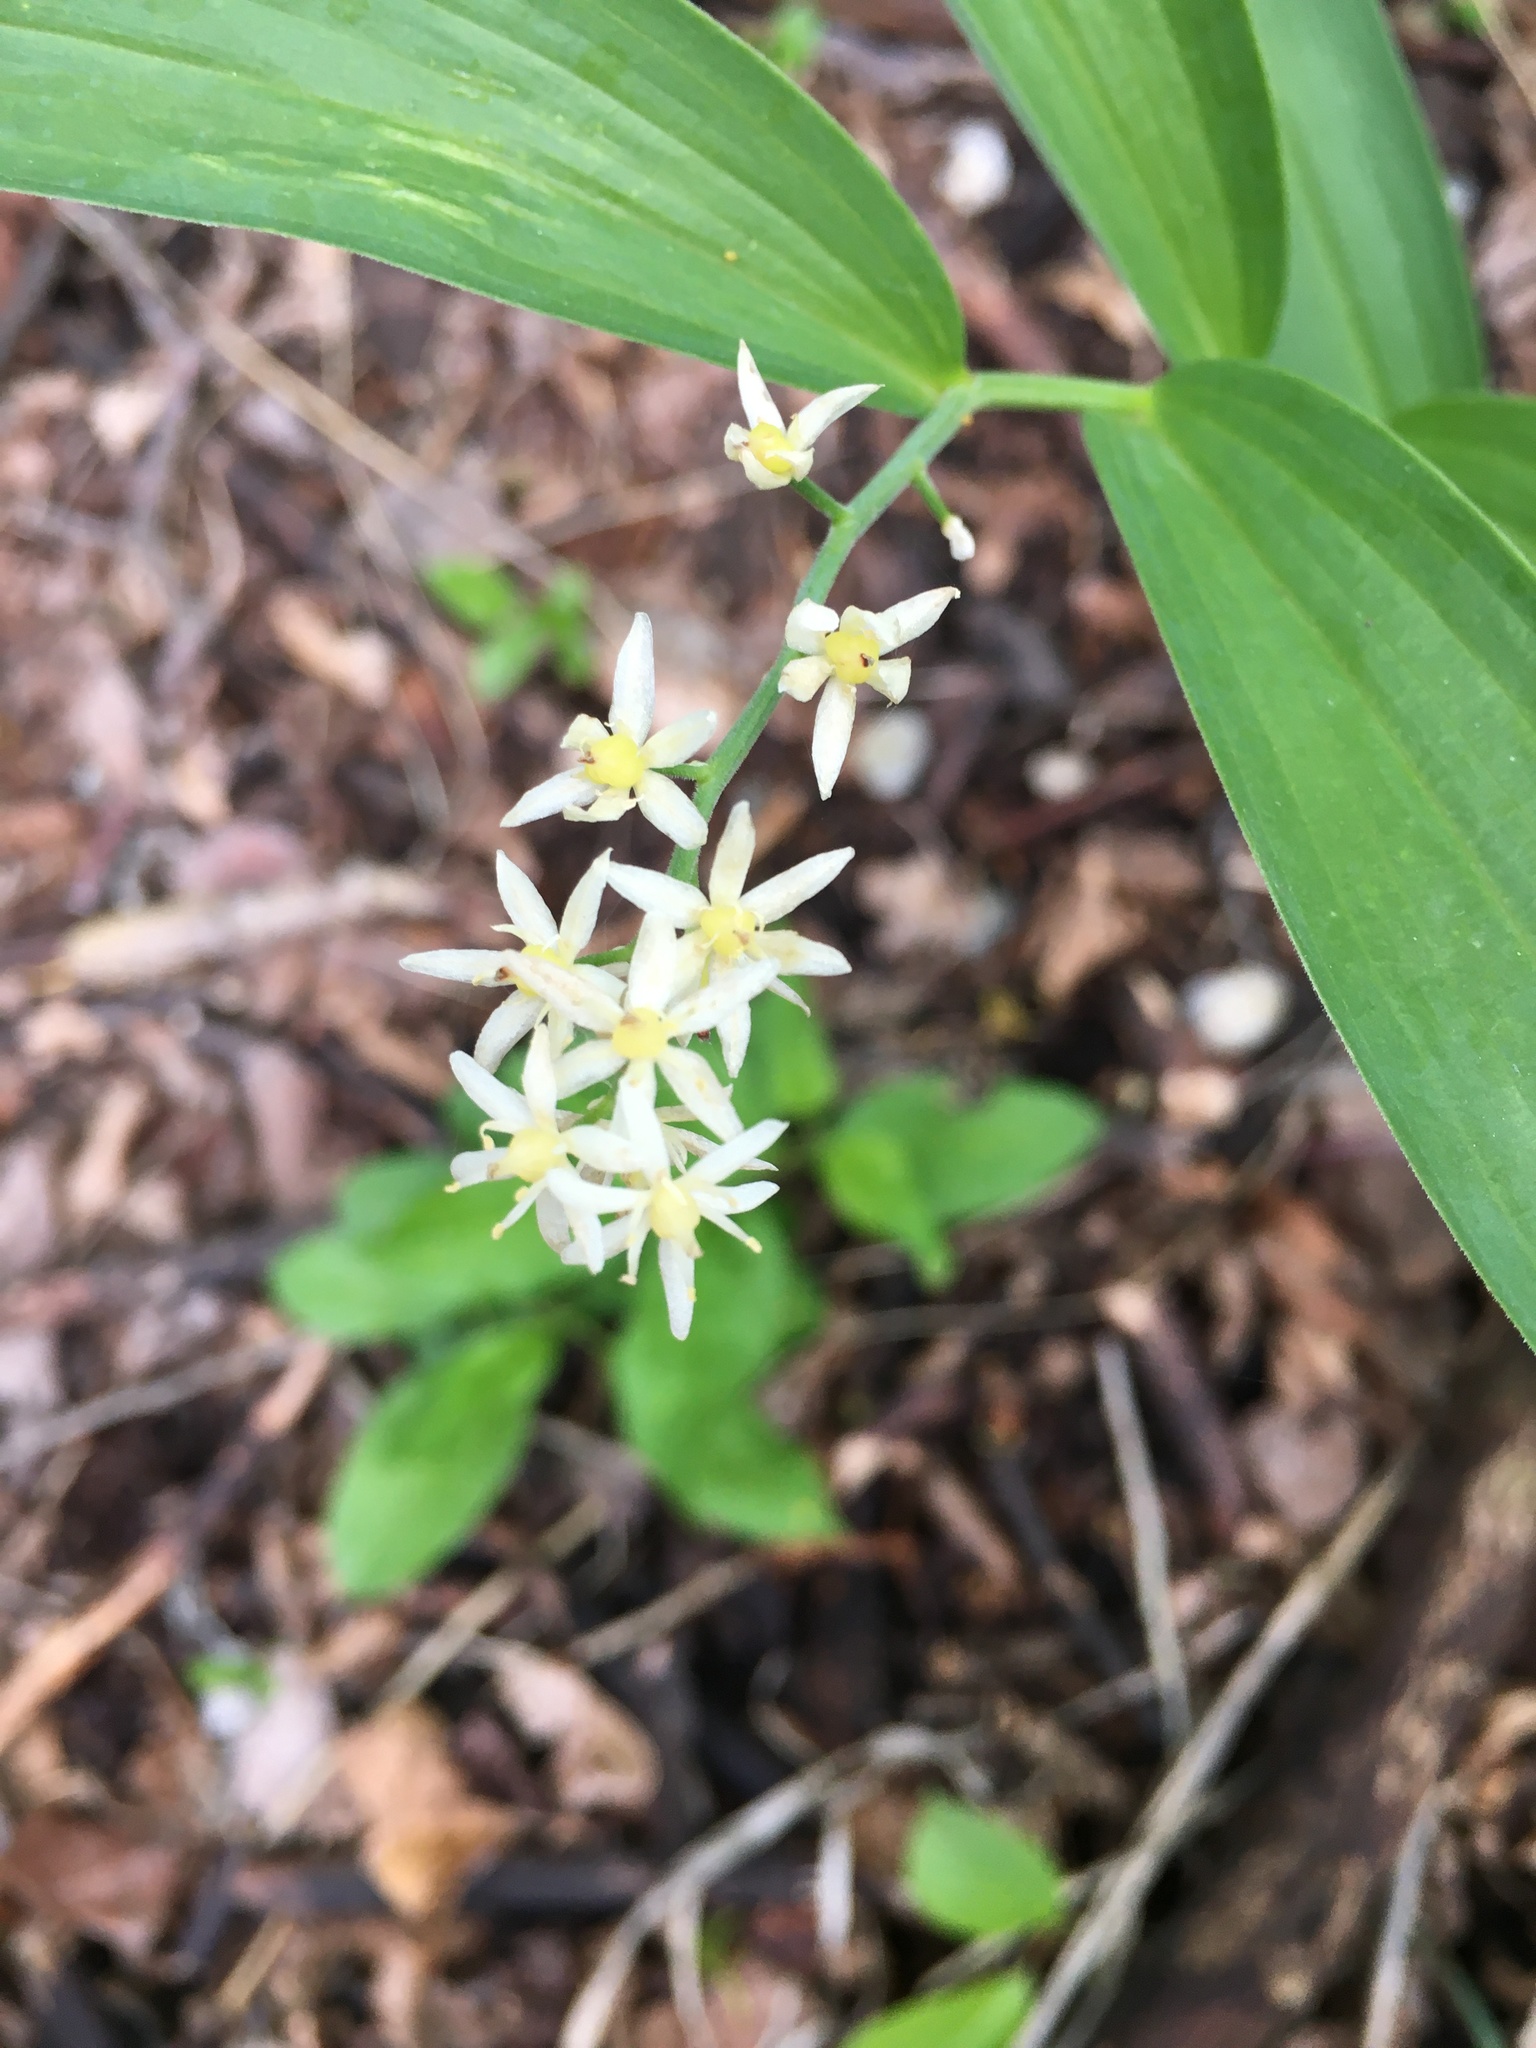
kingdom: Plantae
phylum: Tracheophyta
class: Liliopsida
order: Asparagales
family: Asparagaceae
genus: Maianthemum
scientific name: Maianthemum stellatum
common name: Little false solomon's seal
